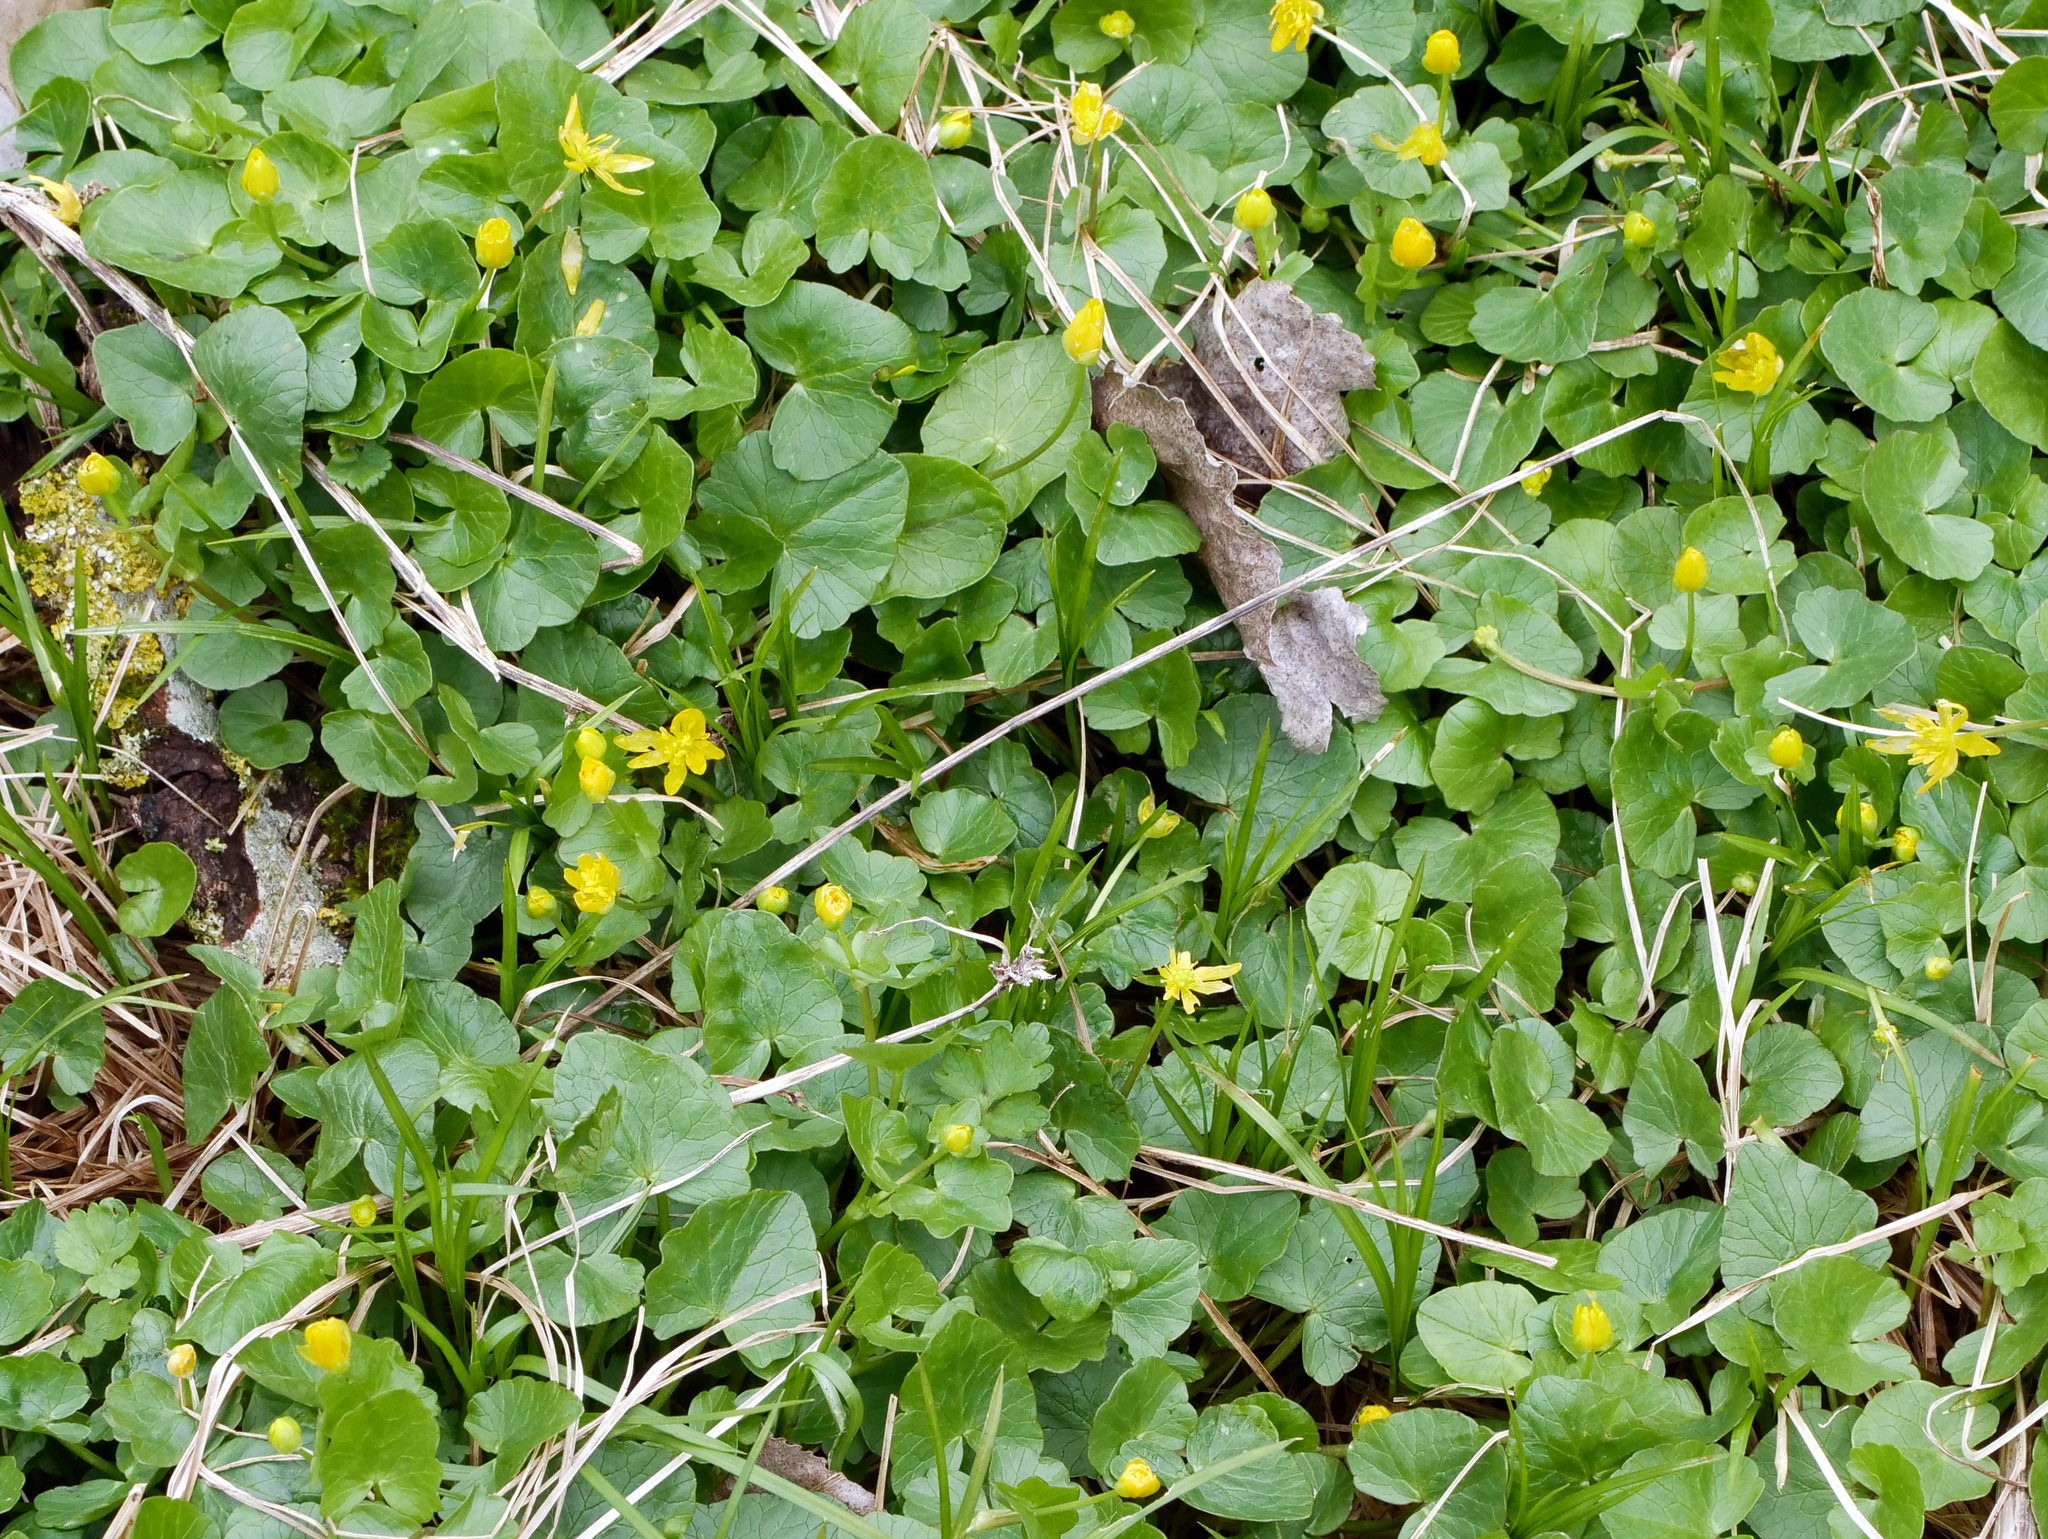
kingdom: Plantae
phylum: Tracheophyta
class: Magnoliopsida
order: Ranunculales
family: Ranunculaceae
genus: Ficaria
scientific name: Ficaria verna
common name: Lesser celandine
